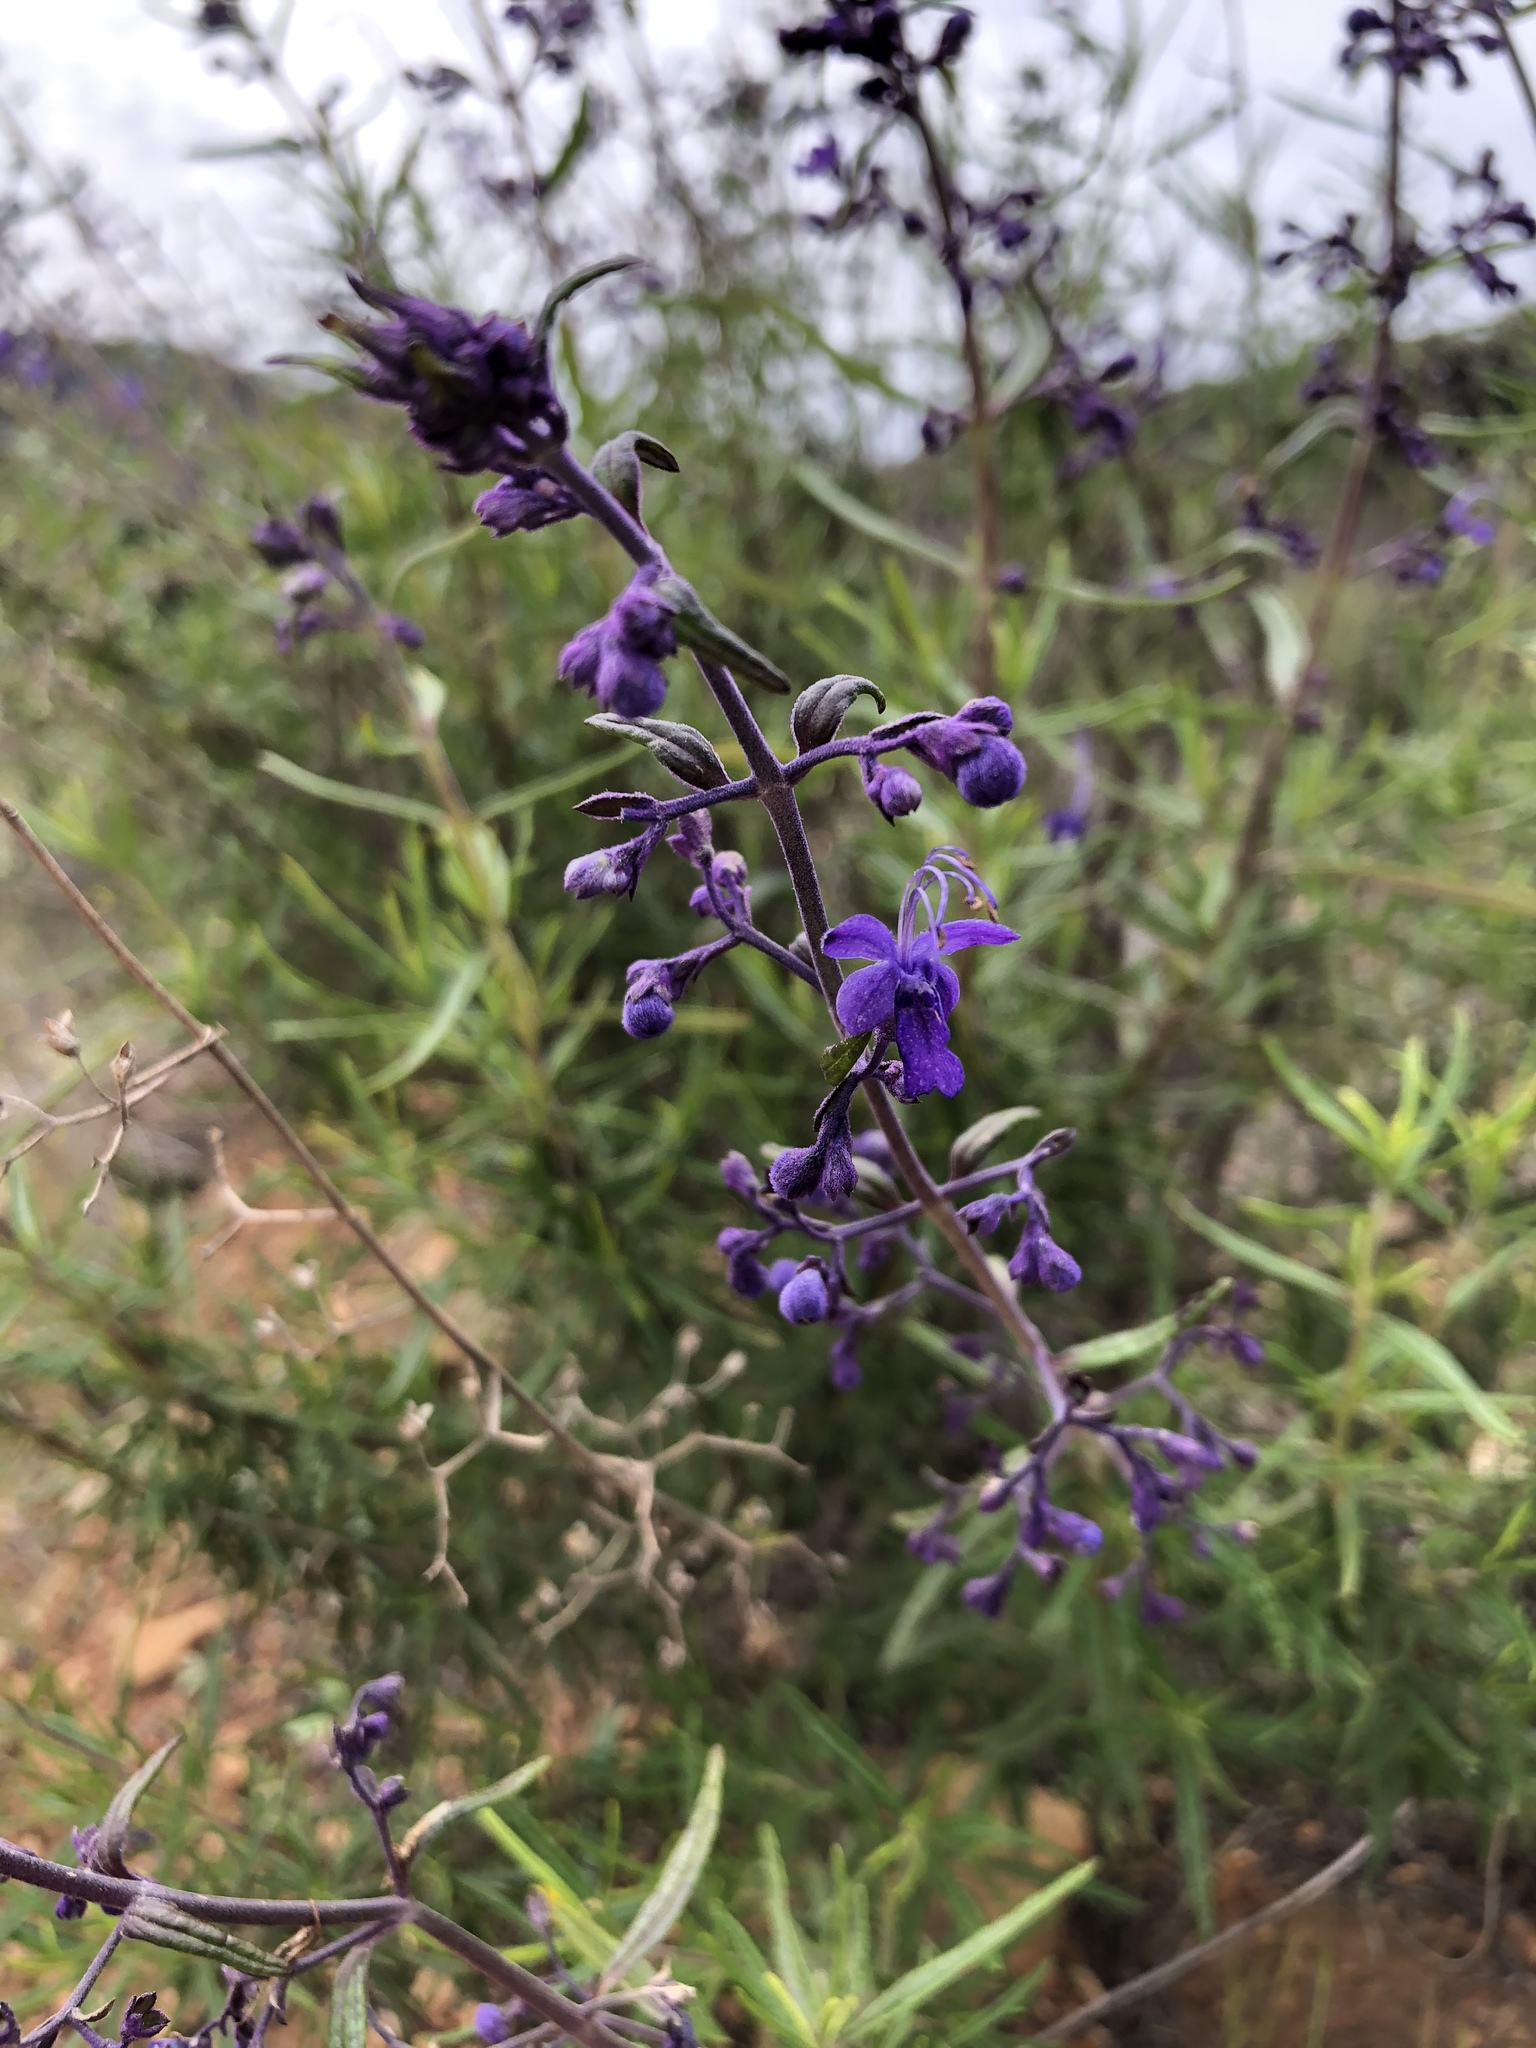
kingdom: Plantae
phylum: Tracheophyta
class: Magnoliopsida
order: Lamiales
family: Lamiaceae
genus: Trichostema
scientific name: Trichostema parishii
